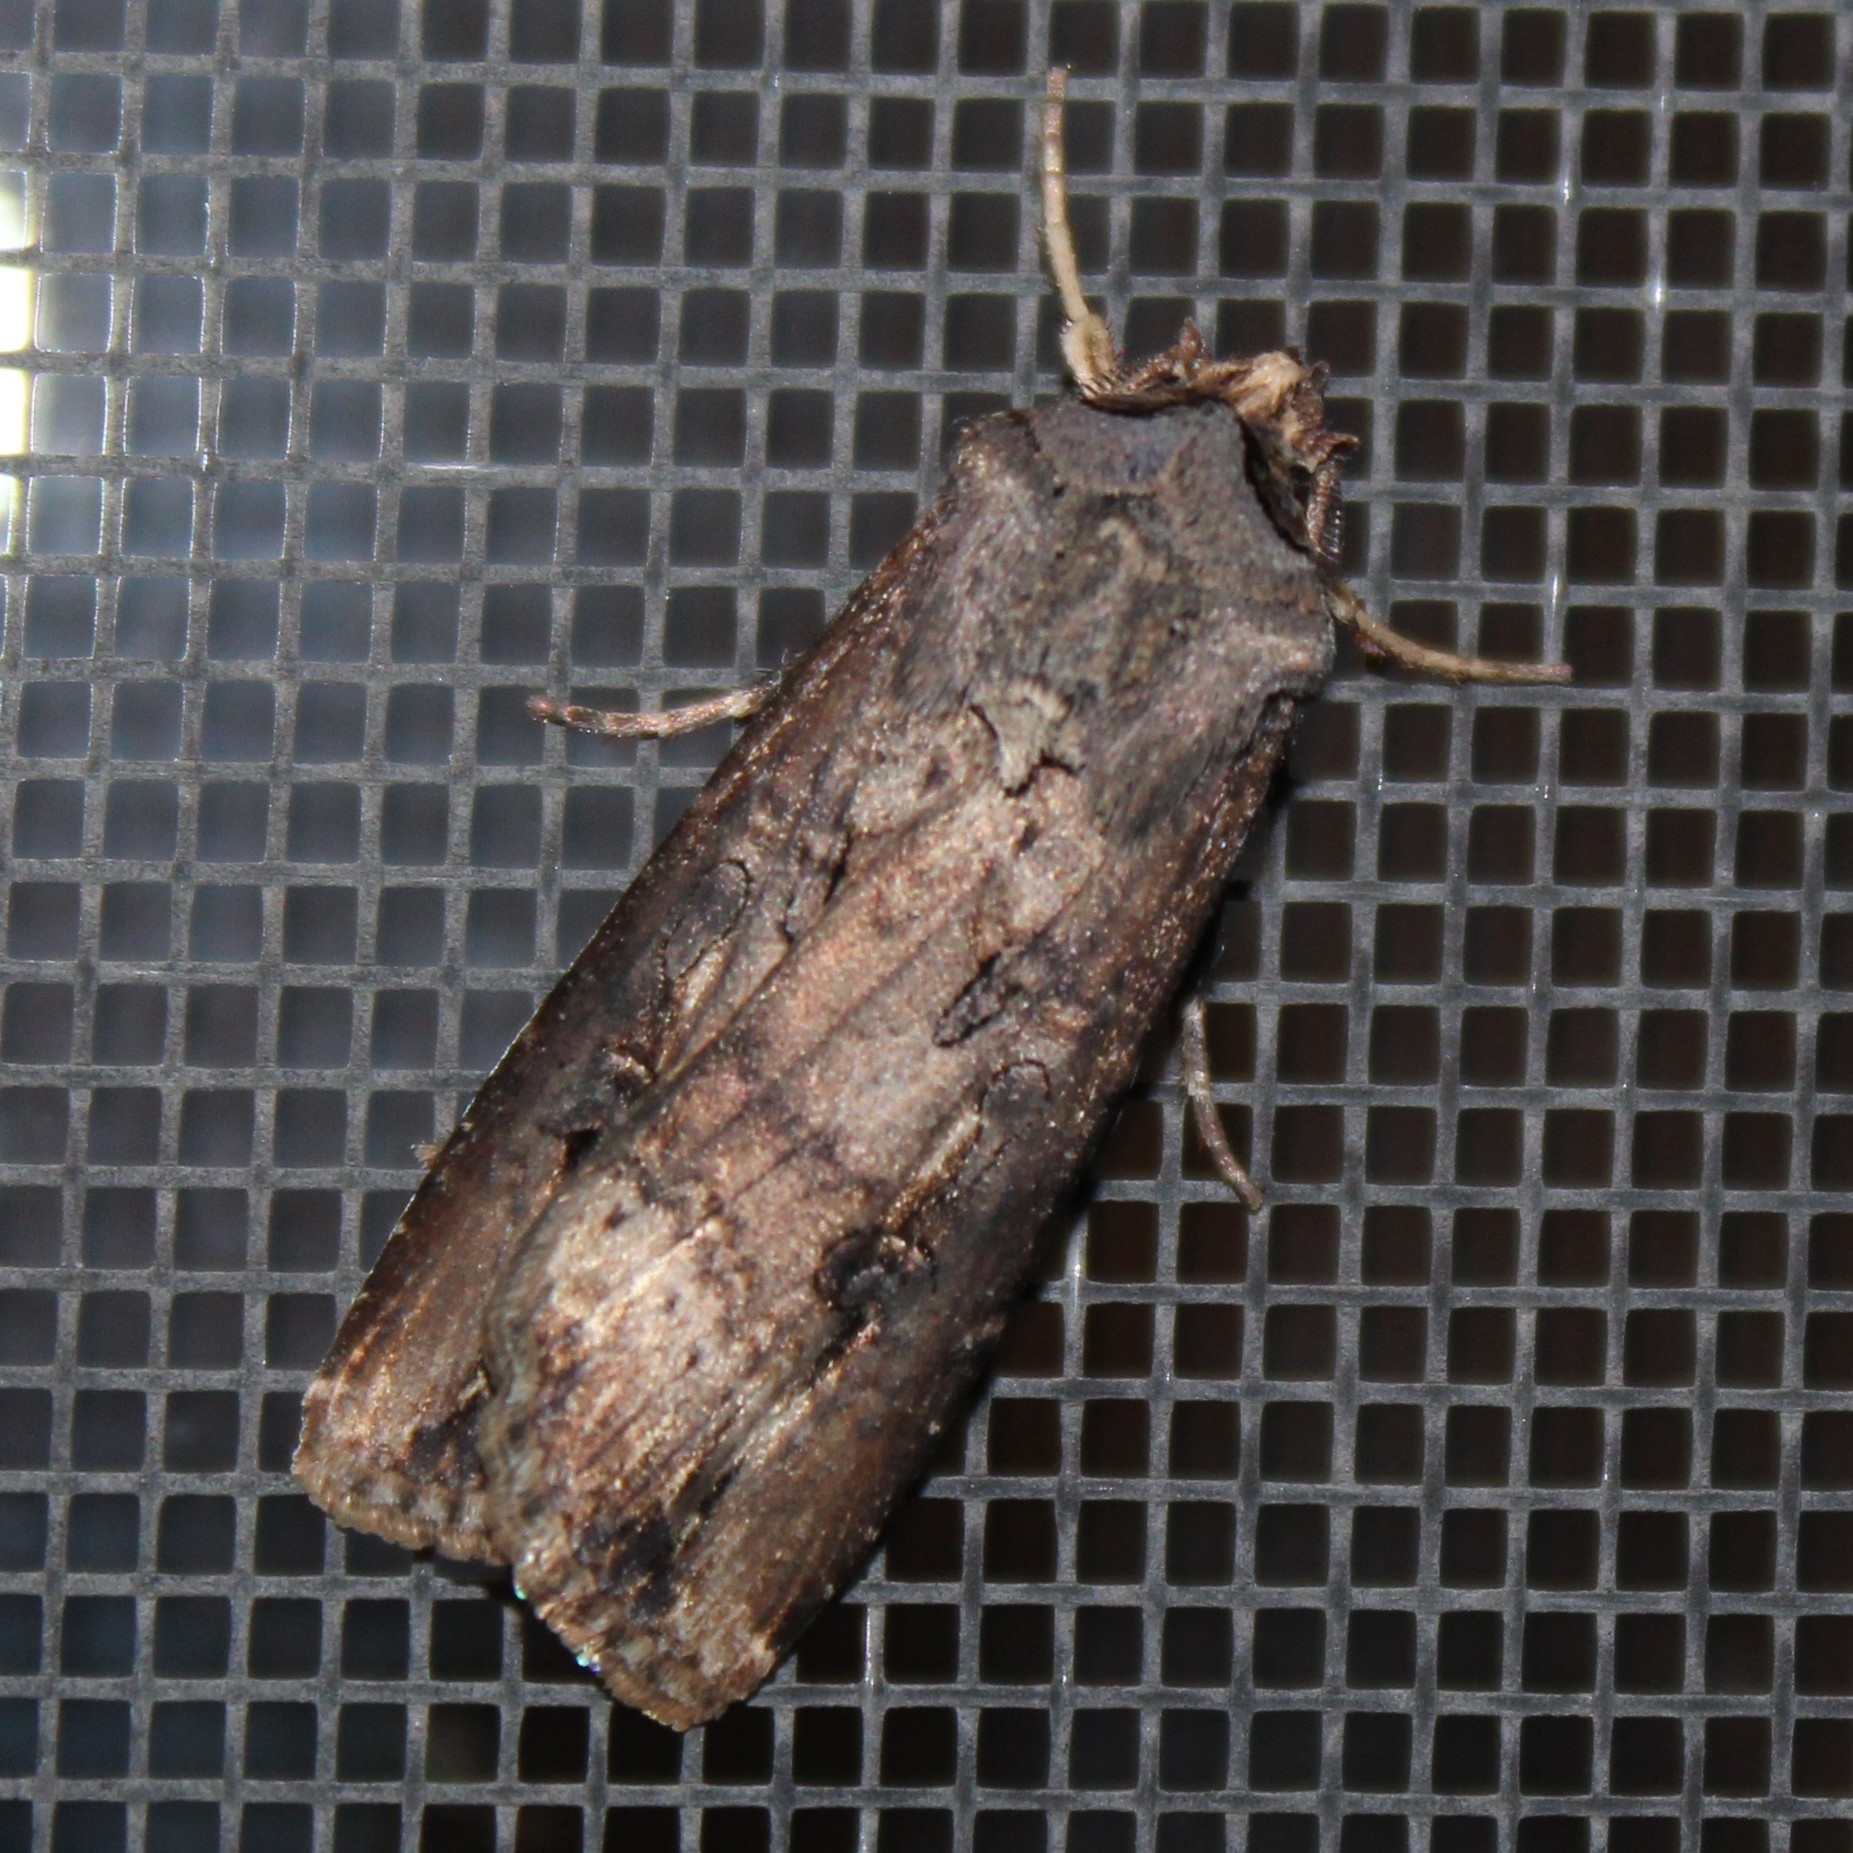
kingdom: Animalia
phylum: Arthropoda
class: Insecta
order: Lepidoptera
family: Noctuidae
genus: Agrotis
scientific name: Agrotis ipsilon
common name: Dark sword-grass
